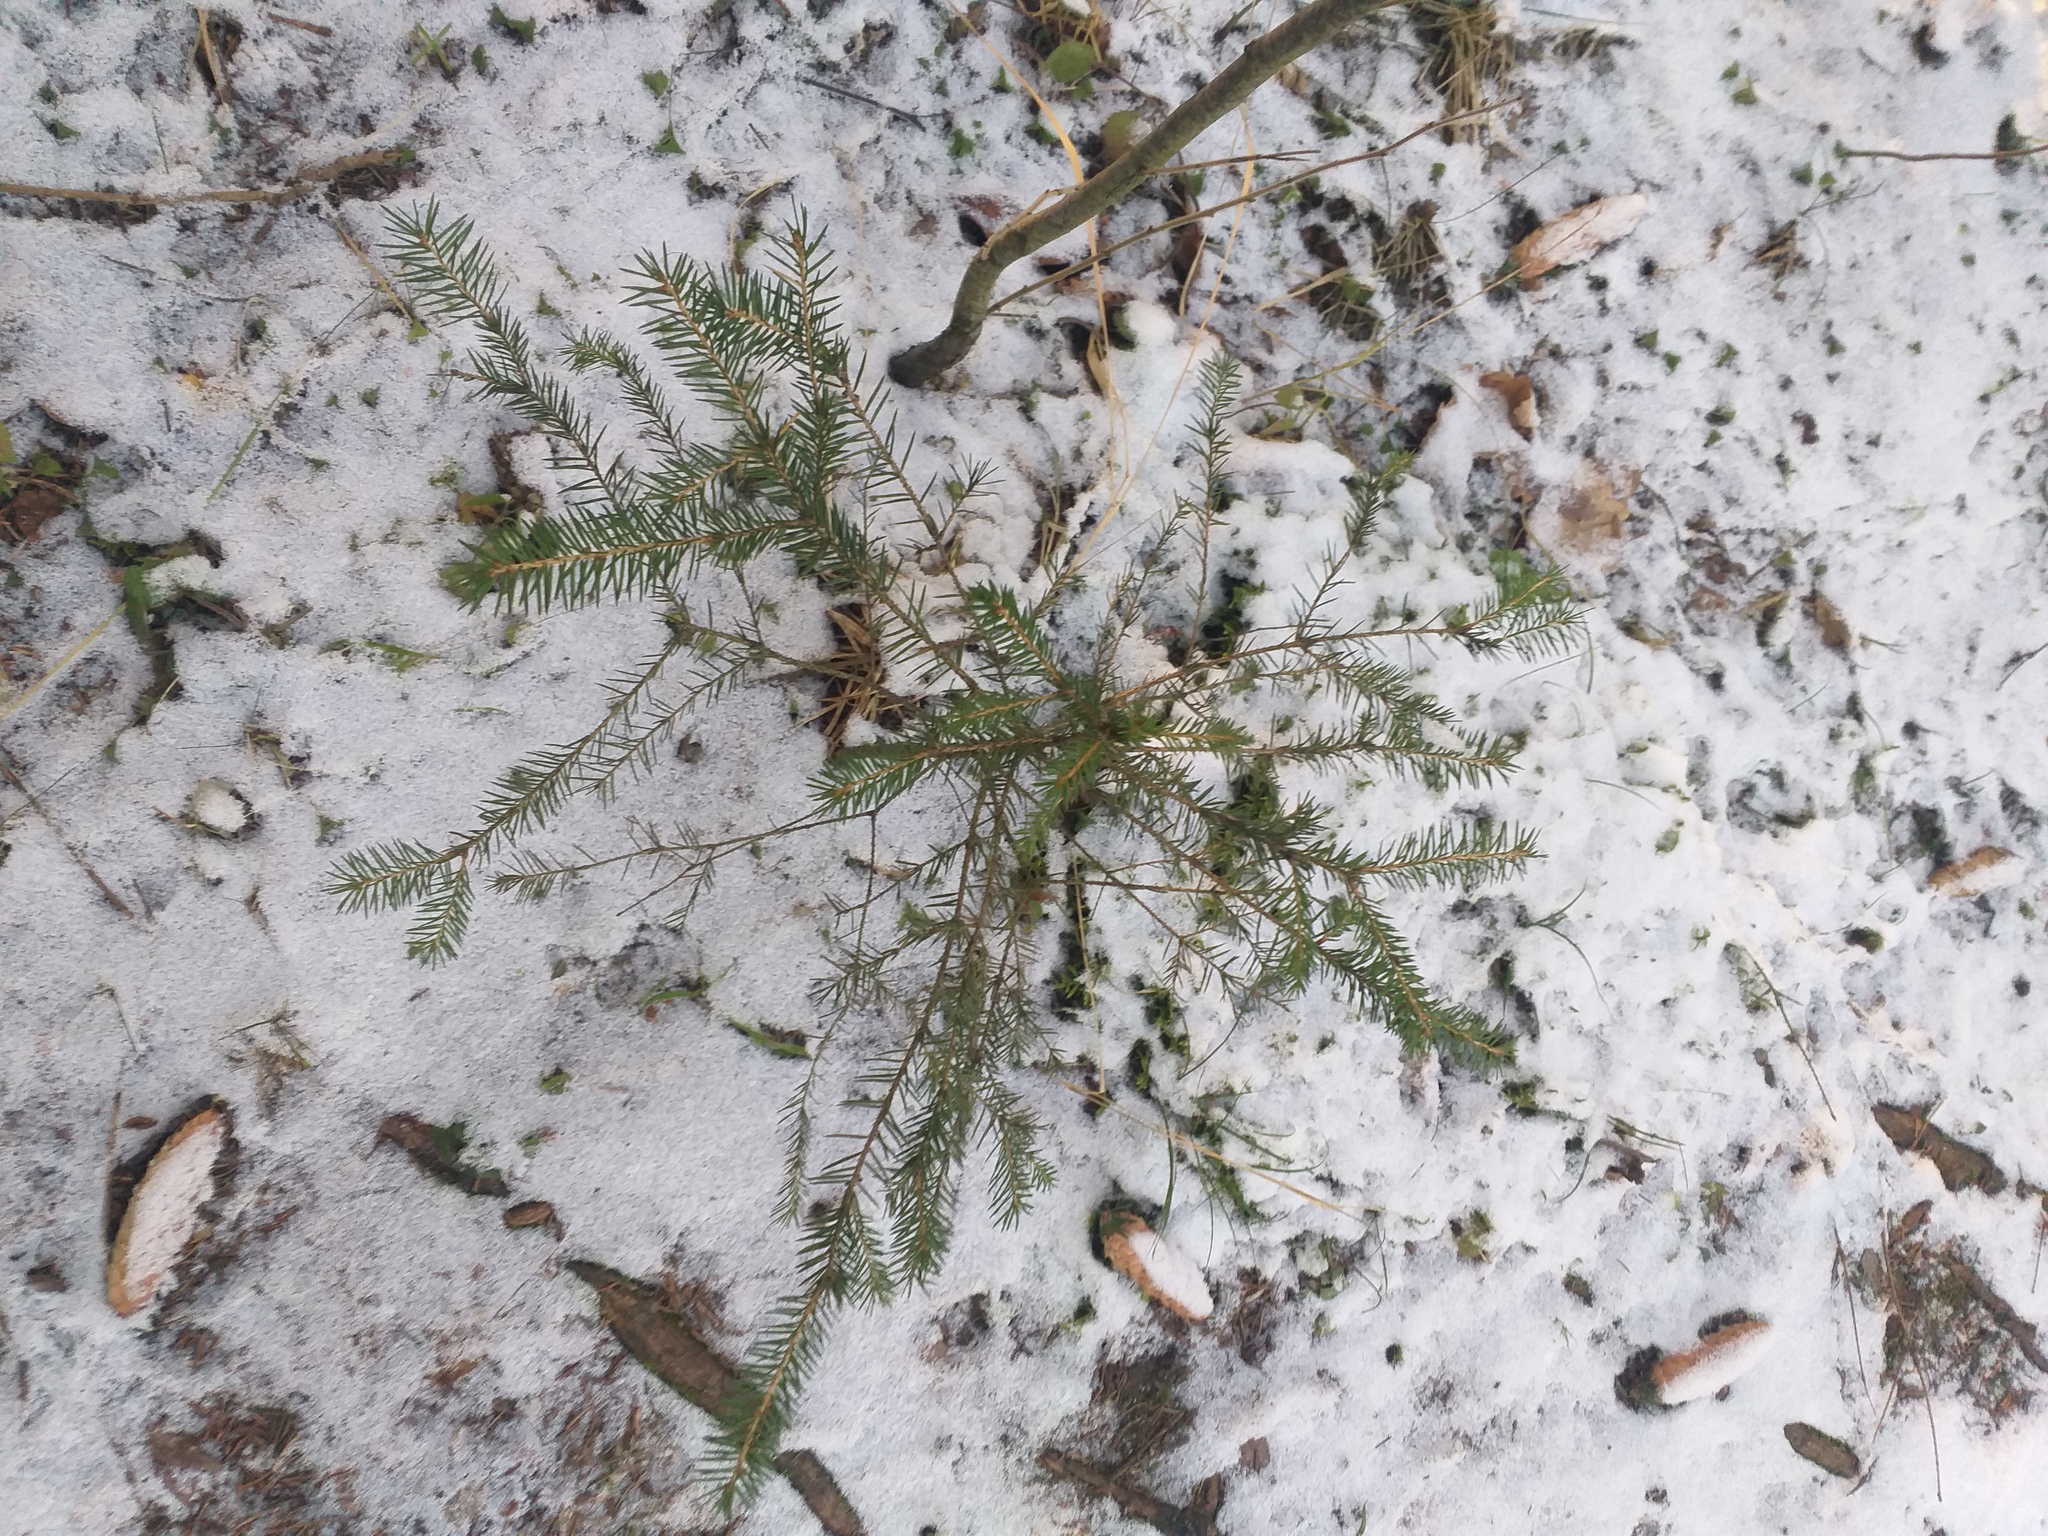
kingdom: Plantae
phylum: Tracheophyta
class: Pinopsida
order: Pinales
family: Pinaceae
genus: Picea
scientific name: Picea abies
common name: Norway spruce
